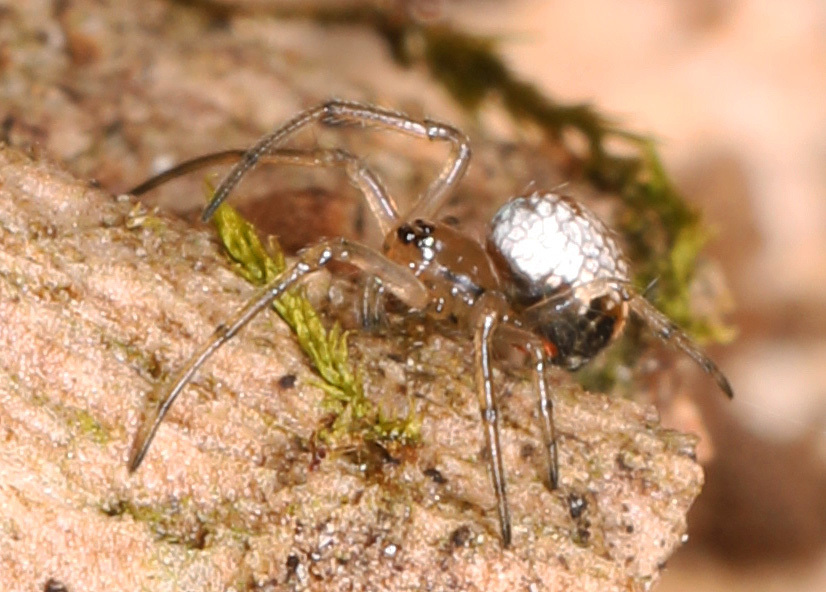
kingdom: Animalia
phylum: Arthropoda
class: Arachnida
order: Araneae
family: Tetragnathidae
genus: Leucauge
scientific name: Leucauge venusta
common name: Longjawed orb weavers
